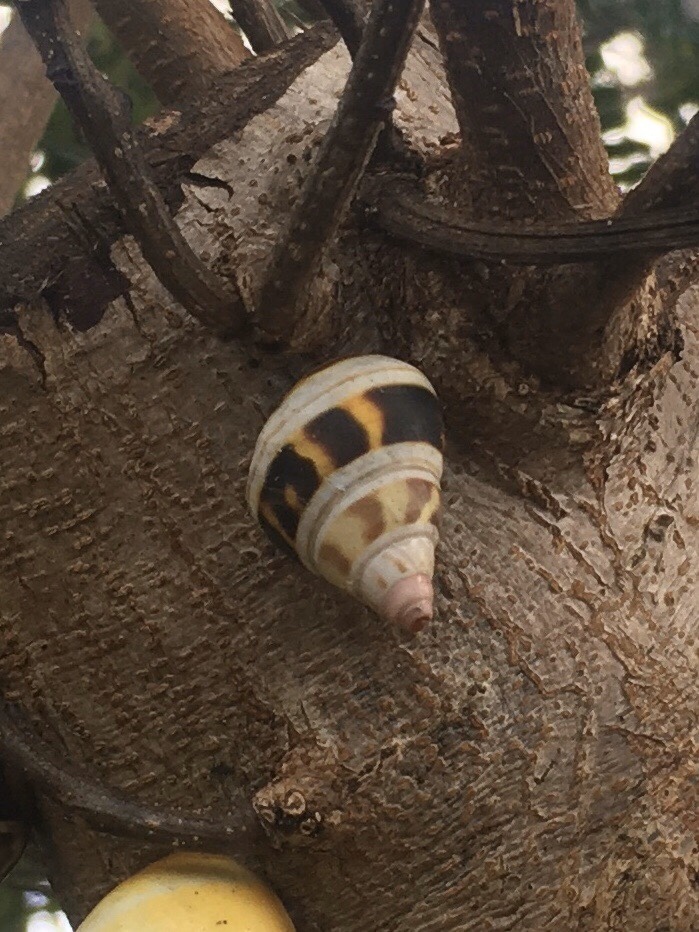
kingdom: Animalia
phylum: Mollusca
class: Gastropoda
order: Stylommatophora
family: Orthalicidae
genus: Liguus
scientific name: Liguus fasciatus
